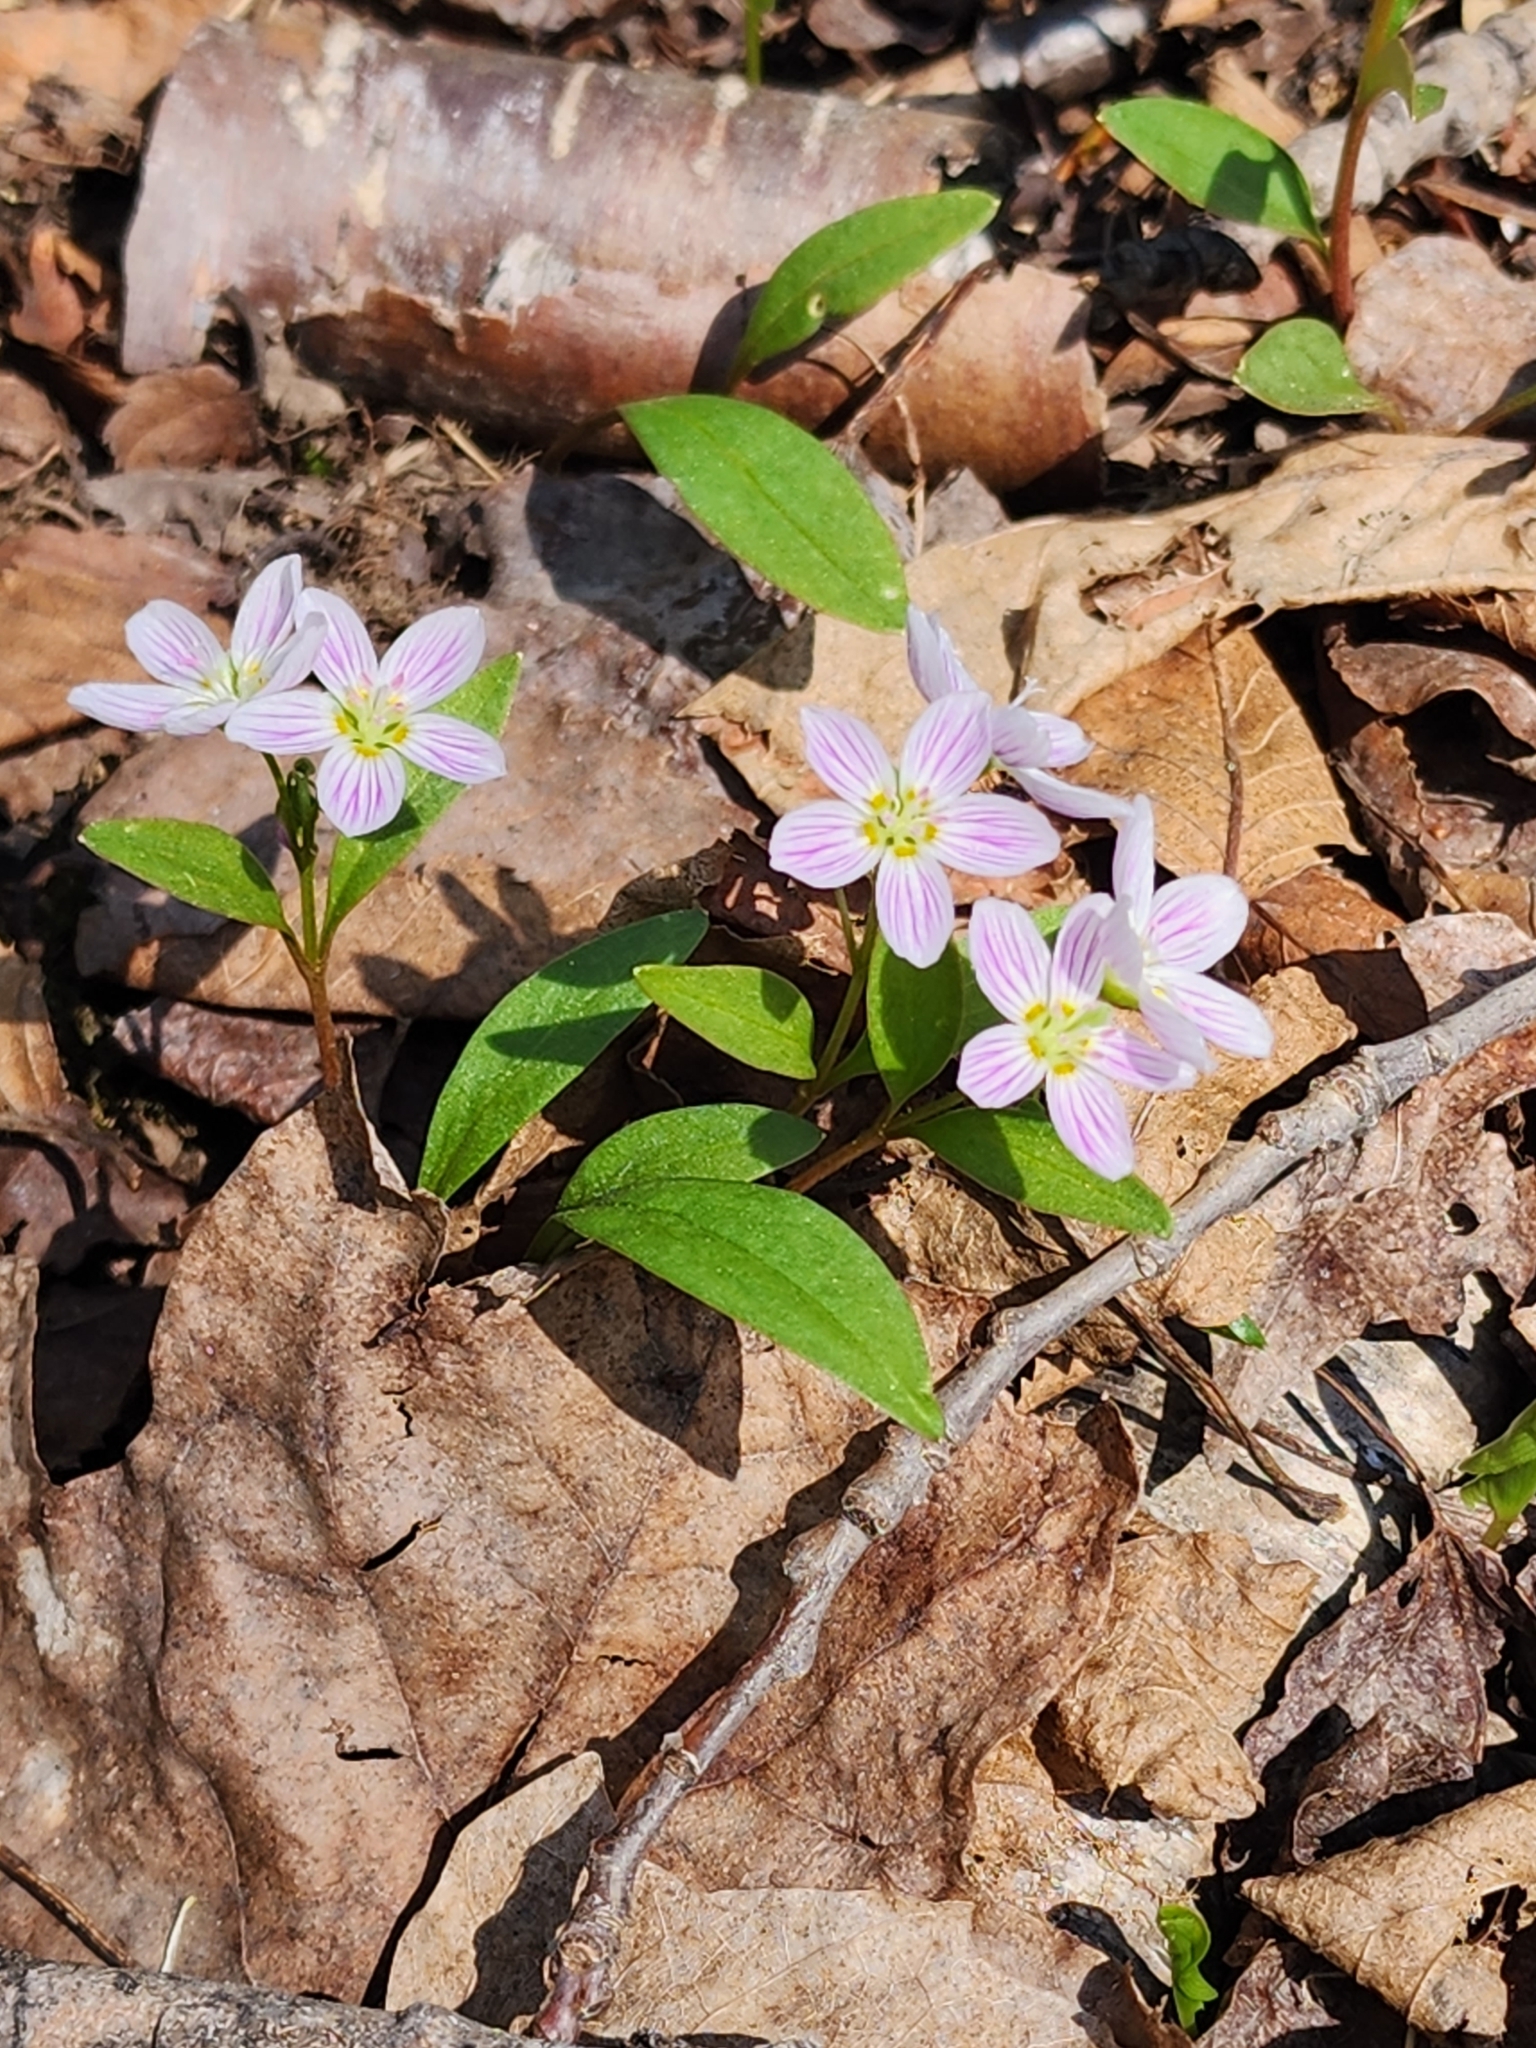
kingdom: Plantae
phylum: Tracheophyta
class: Magnoliopsida
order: Caryophyllales
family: Montiaceae
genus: Claytonia
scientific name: Claytonia caroliniana
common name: Carolina spring beauty
